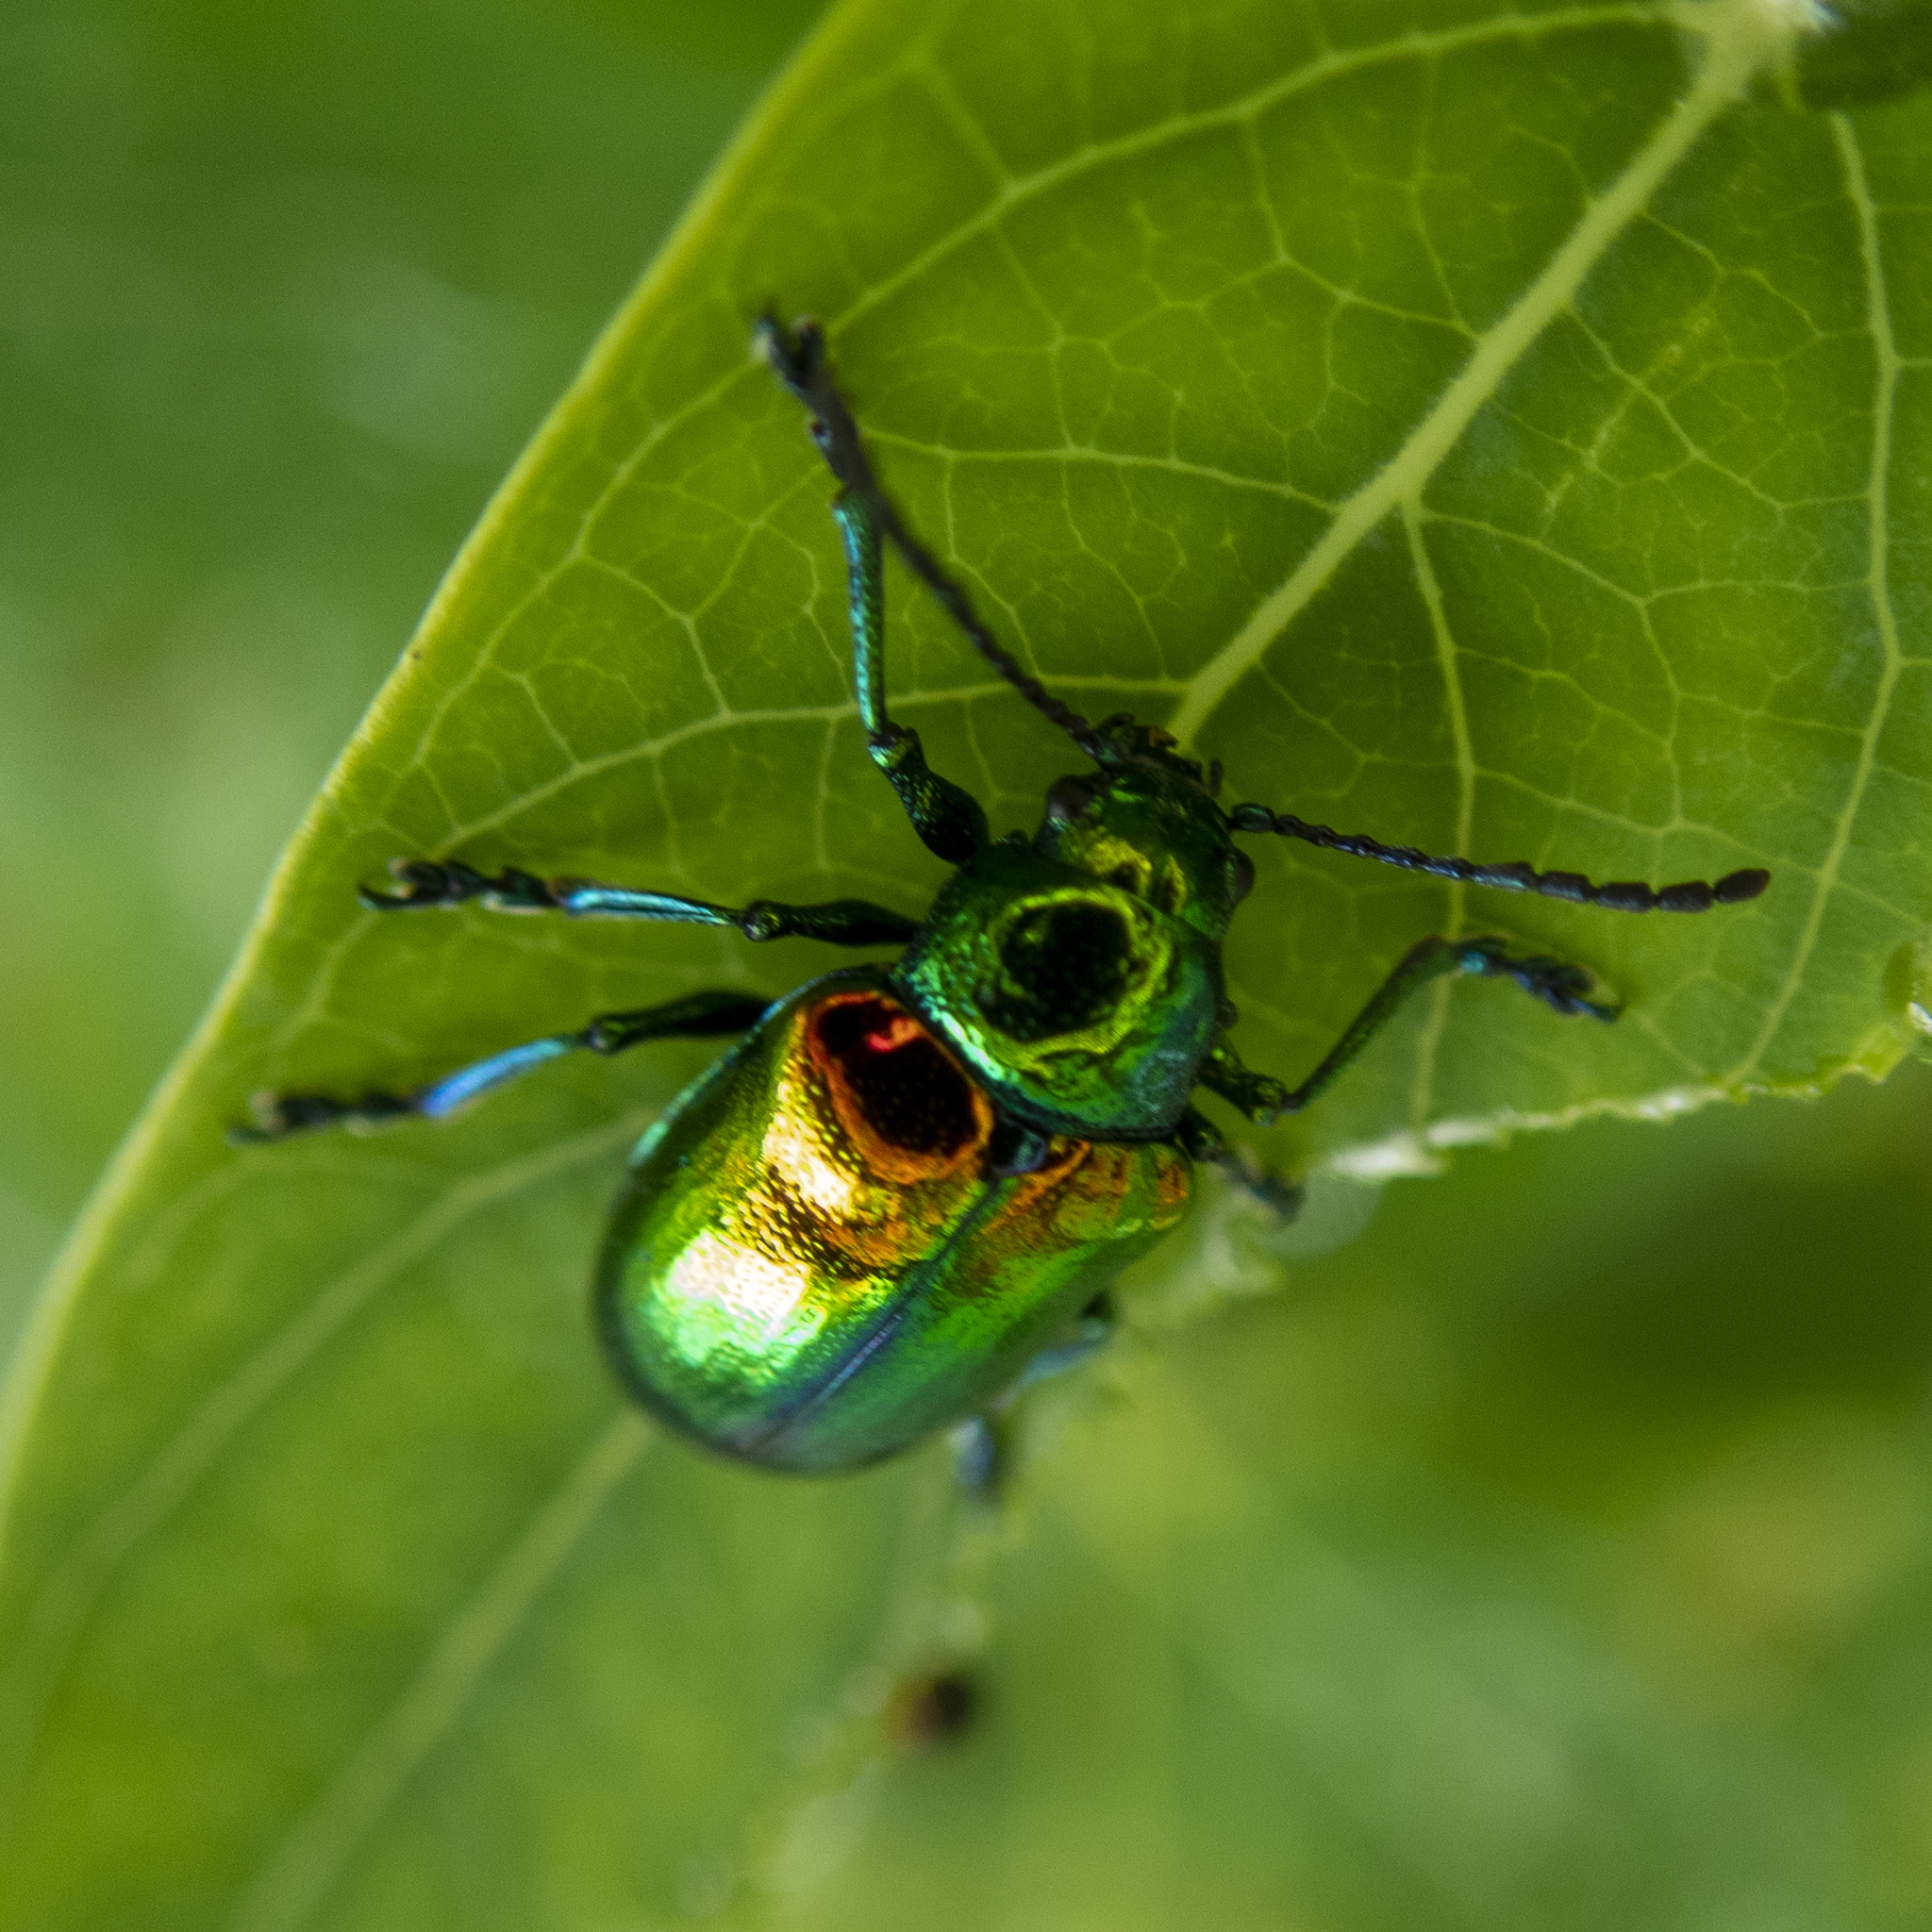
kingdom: Animalia
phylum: Arthropoda
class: Insecta
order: Coleoptera
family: Chrysomelidae
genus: Chrysochus
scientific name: Chrysochus auratus
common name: Dogbane leaf beetle
